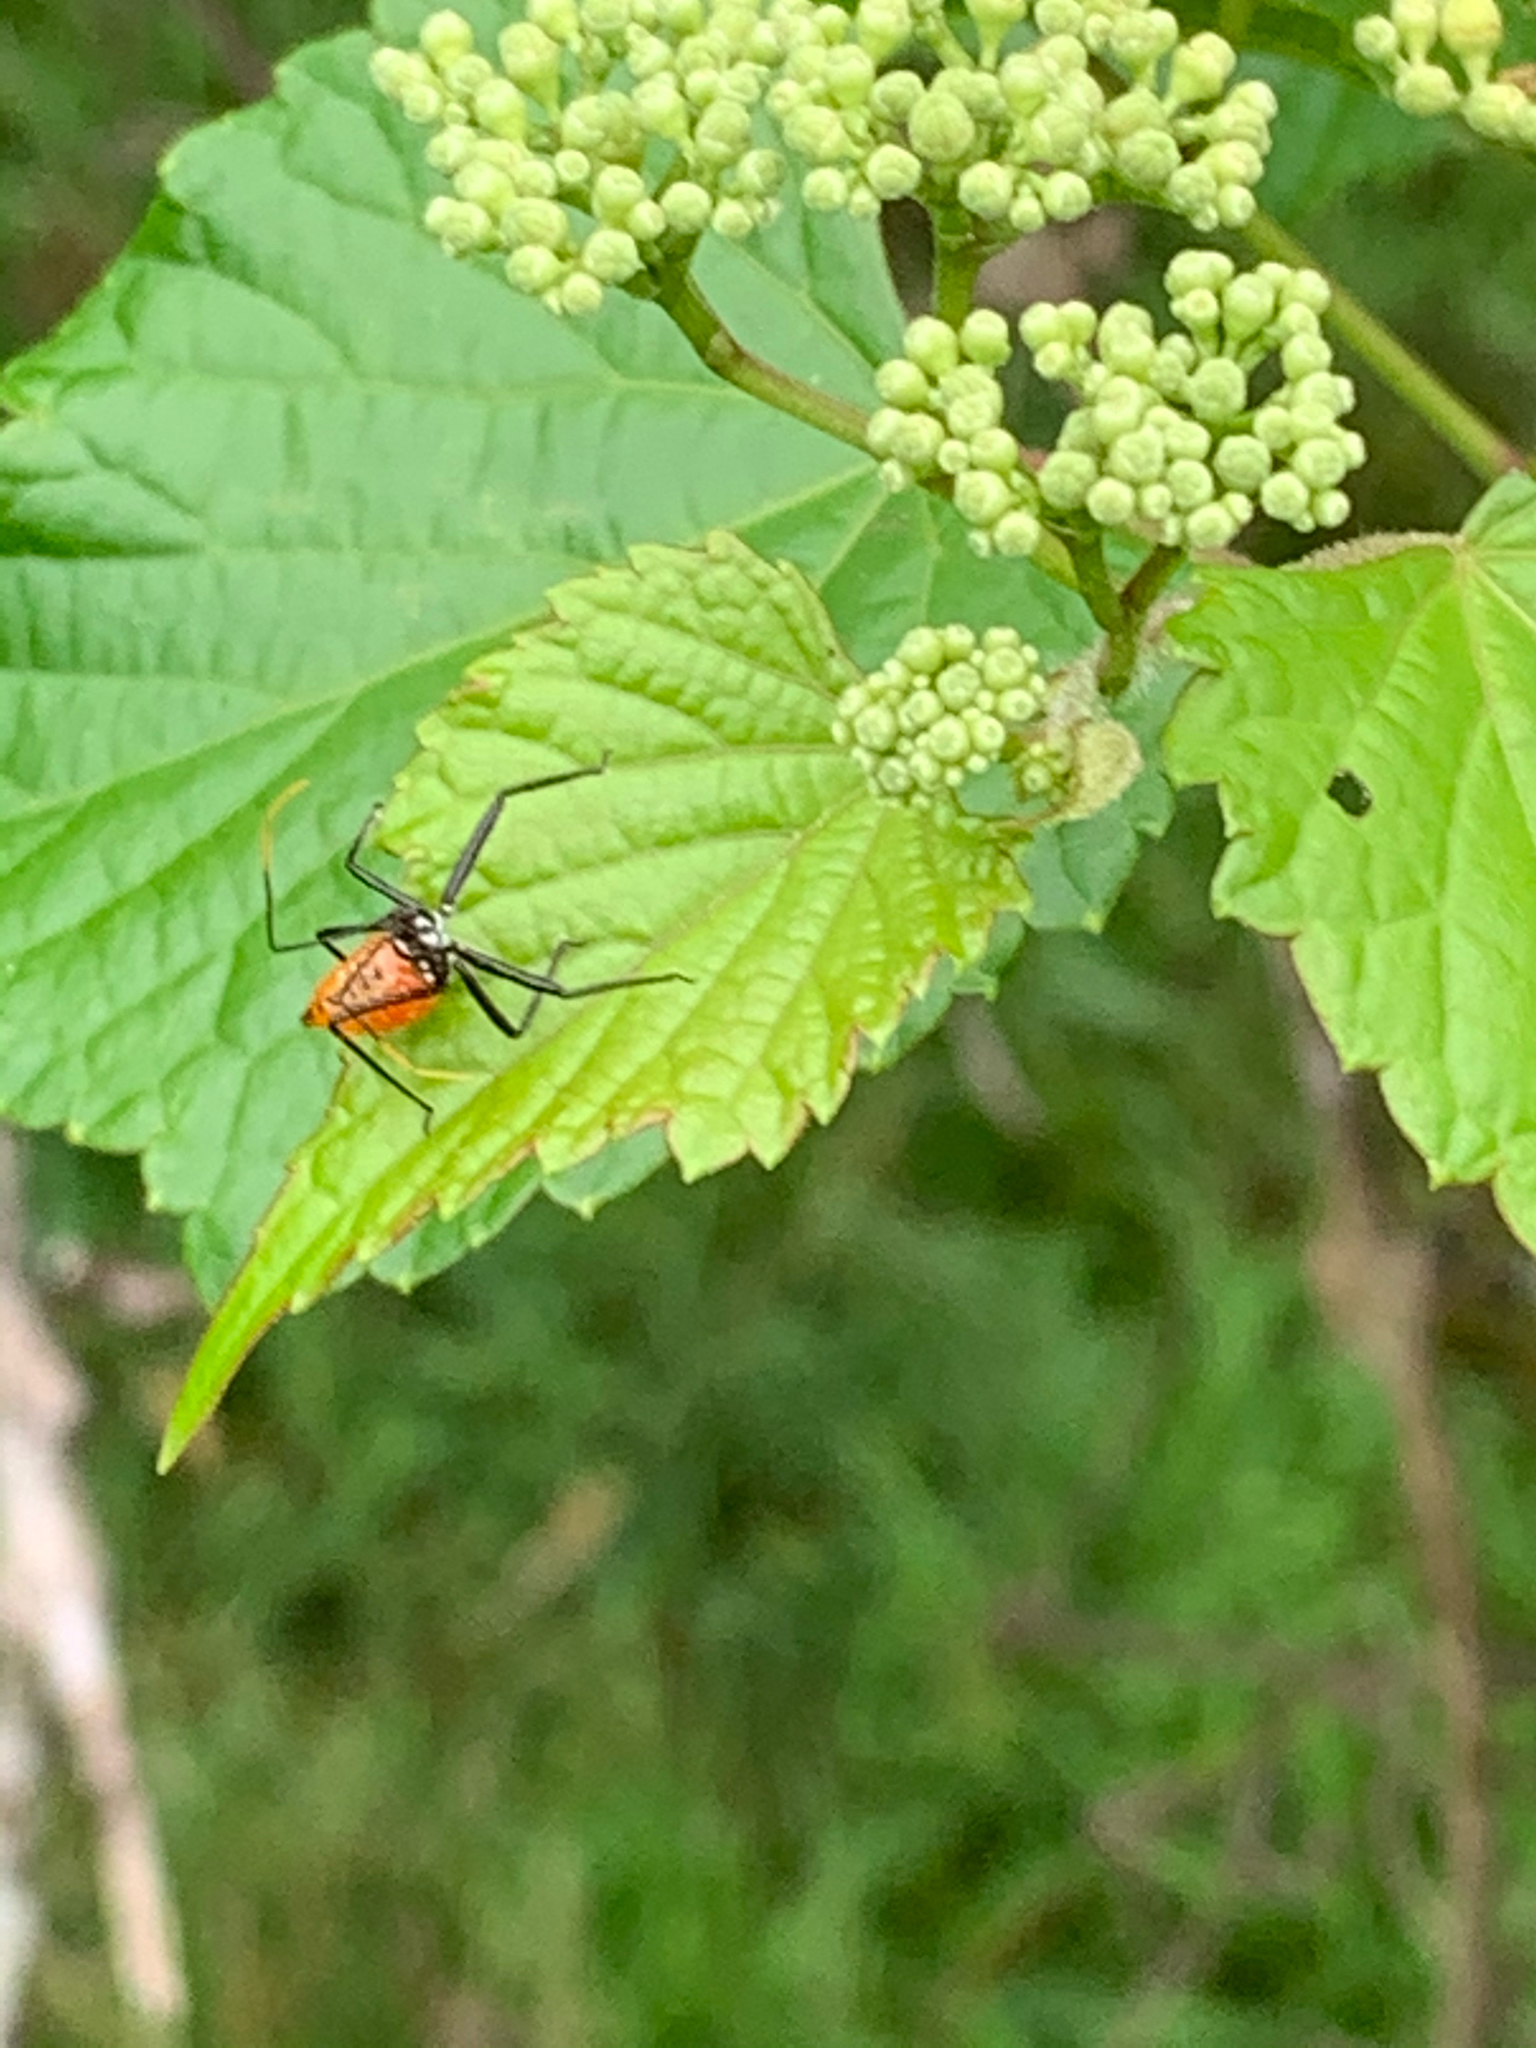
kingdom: Animalia
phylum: Arthropoda
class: Insecta
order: Hemiptera
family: Reduviidae
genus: Arilus
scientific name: Arilus cristatus
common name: North american wheel bug
